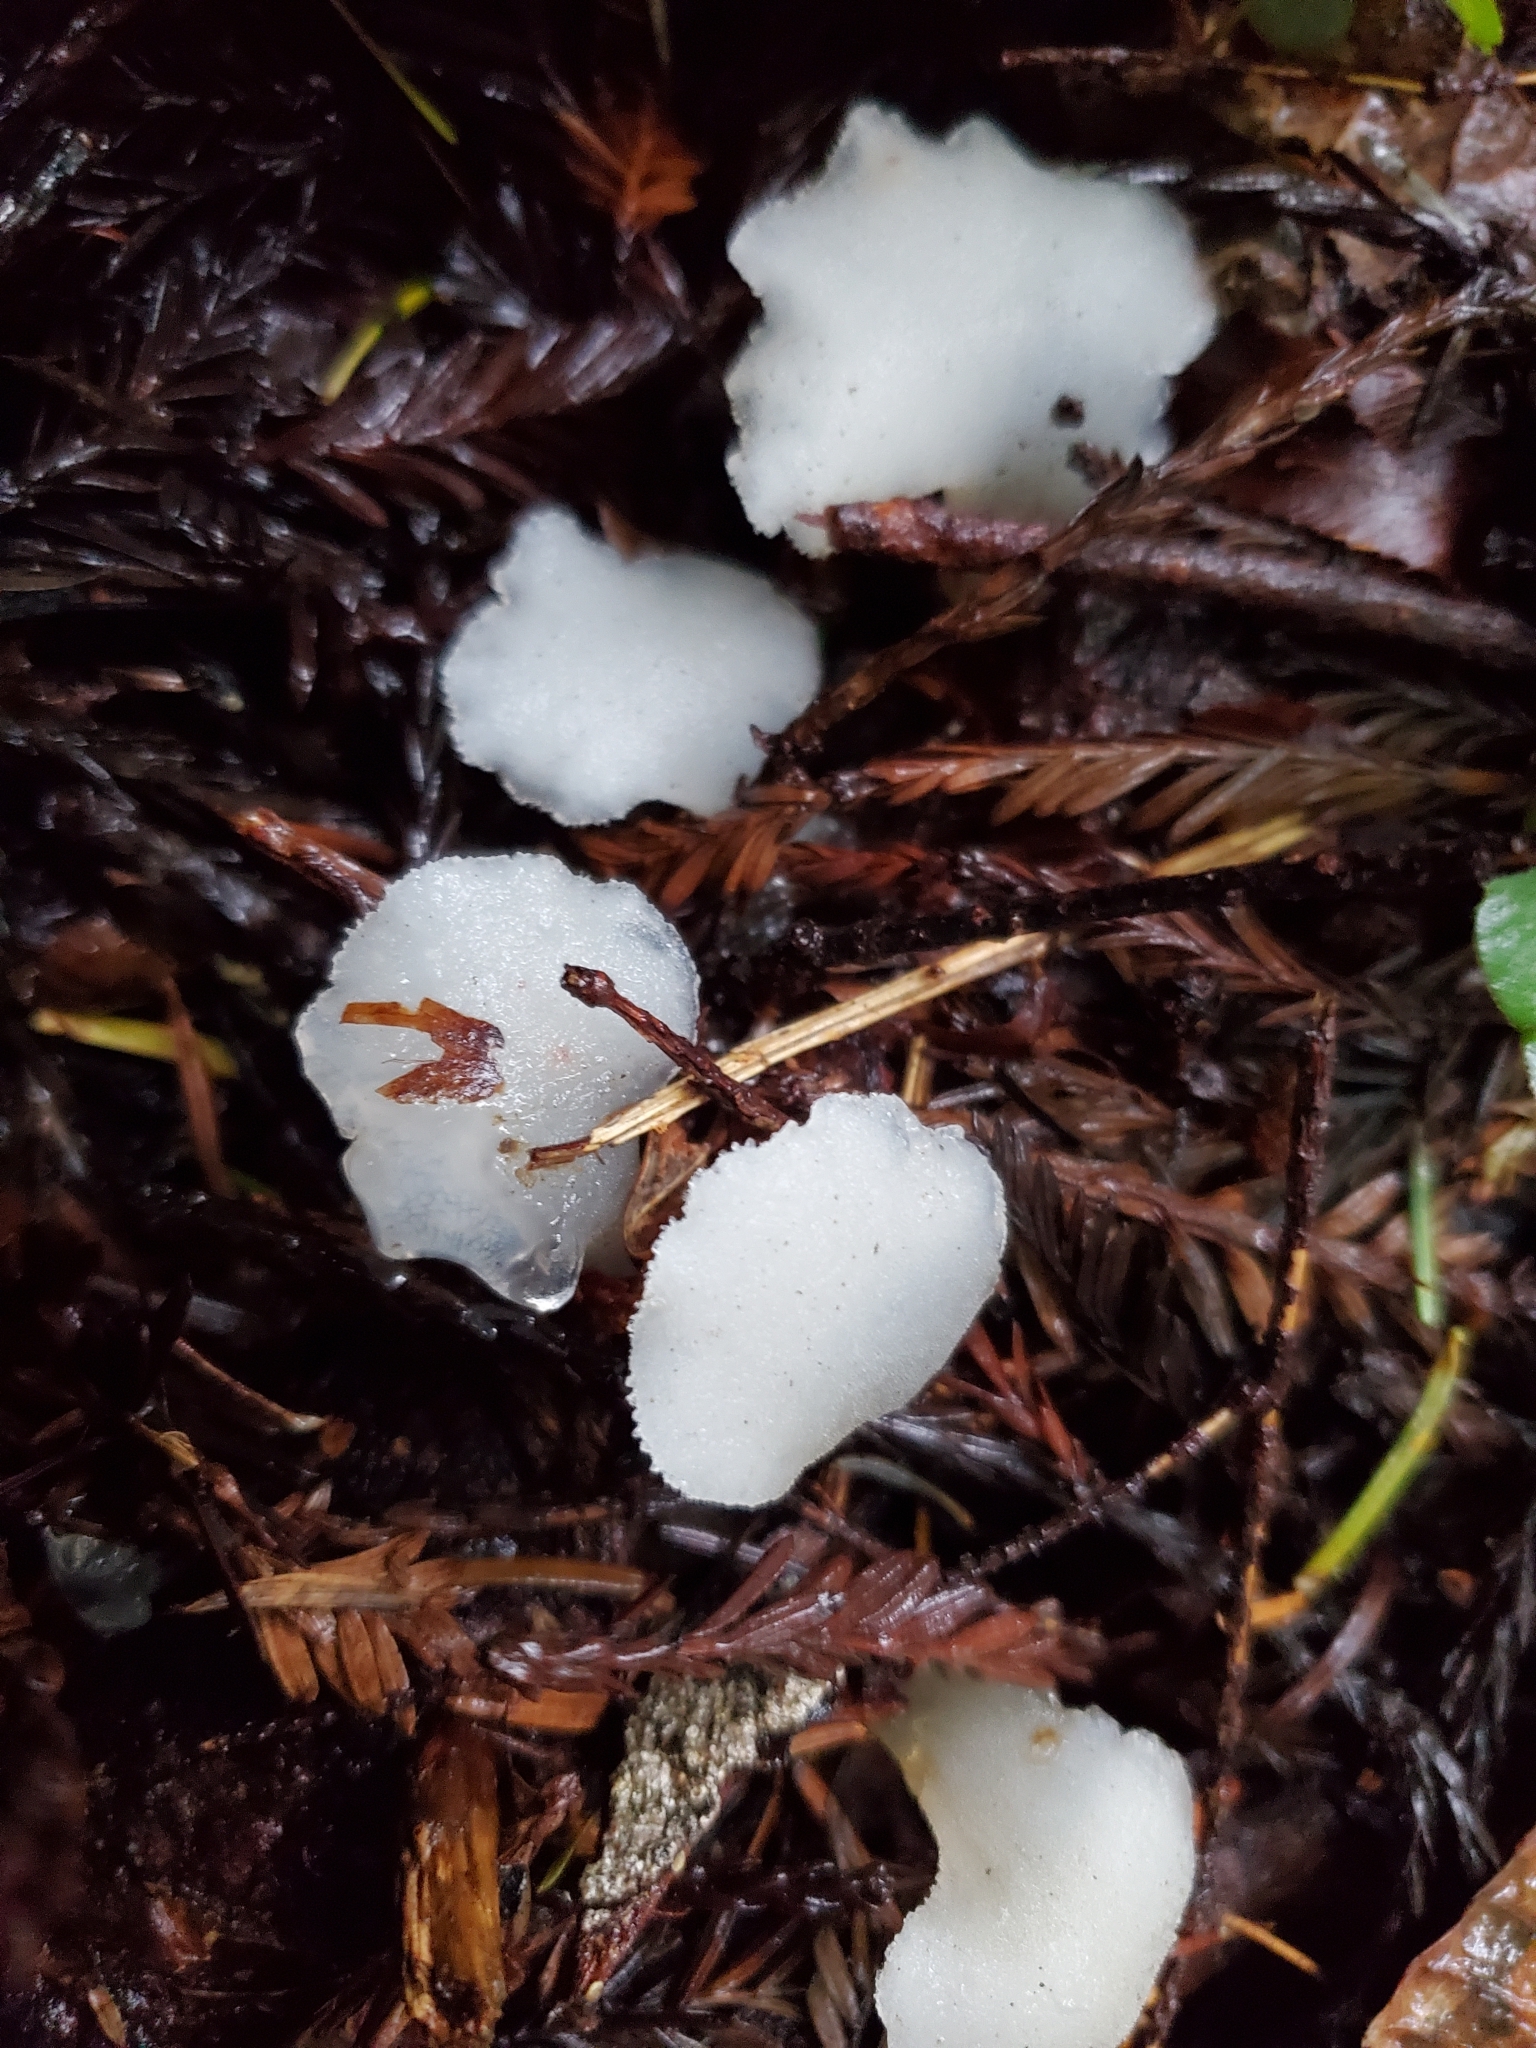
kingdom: Fungi
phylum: Basidiomycota
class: Agaricomycetes
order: Auriculariales
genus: Pseudohydnum
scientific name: Pseudohydnum gelatinosum
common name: Jelly tongue
